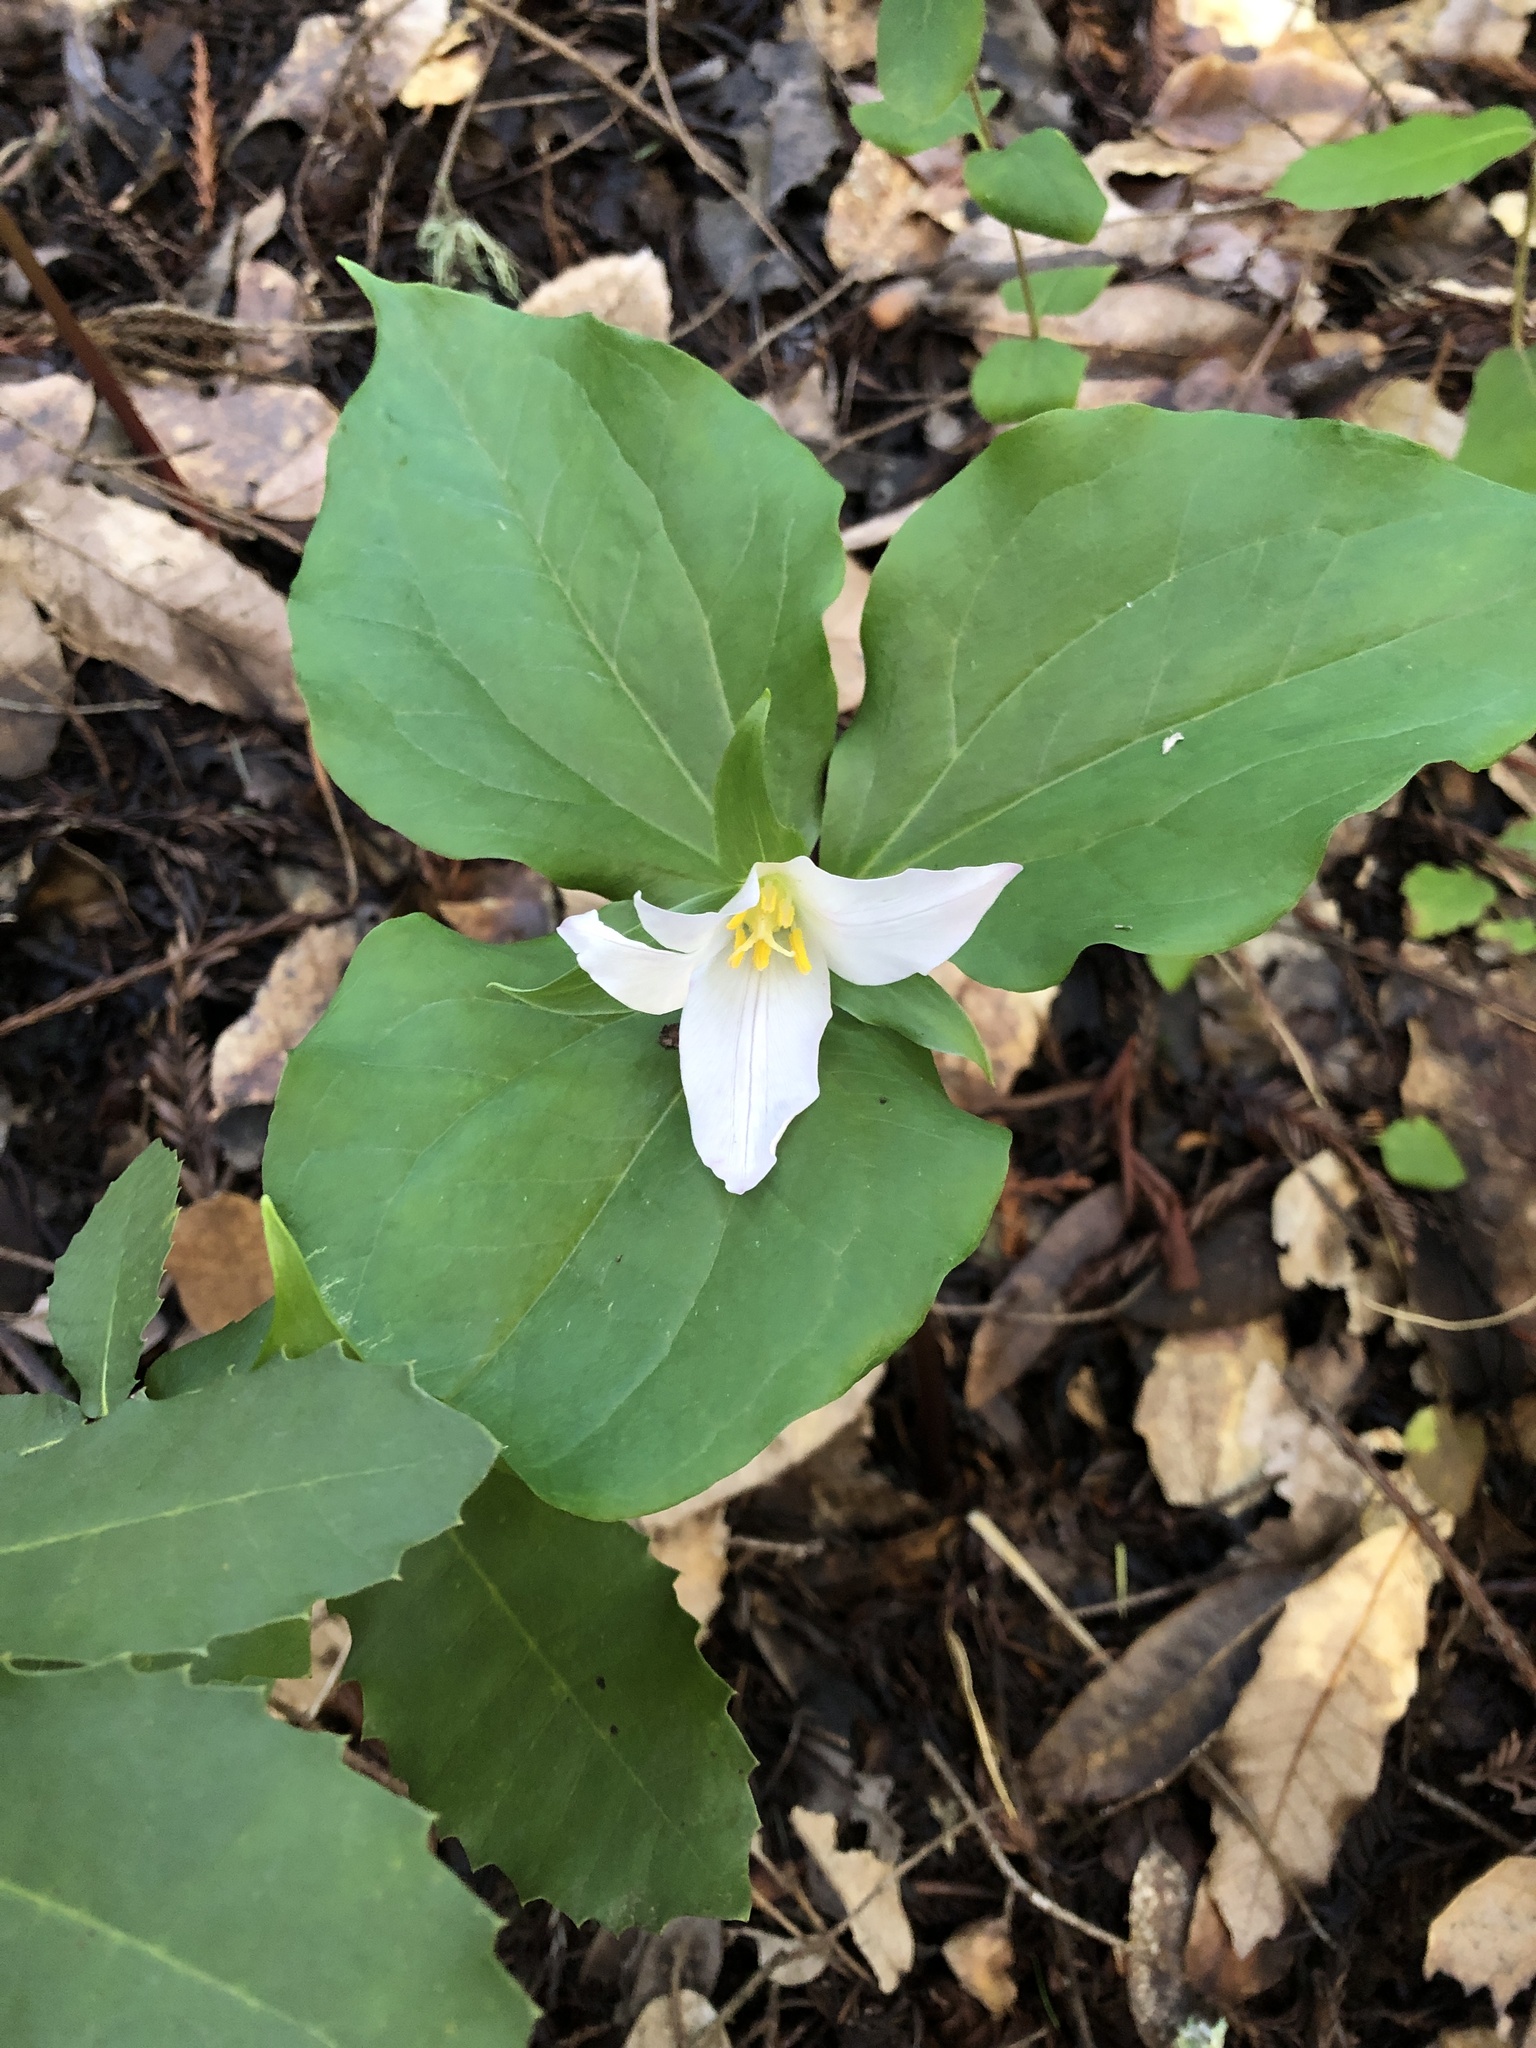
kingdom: Plantae
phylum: Tracheophyta
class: Liliopsida
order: Liliales
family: Melanthiaceae
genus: Trillium
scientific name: Trillium ovatum
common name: Pacific trillium
